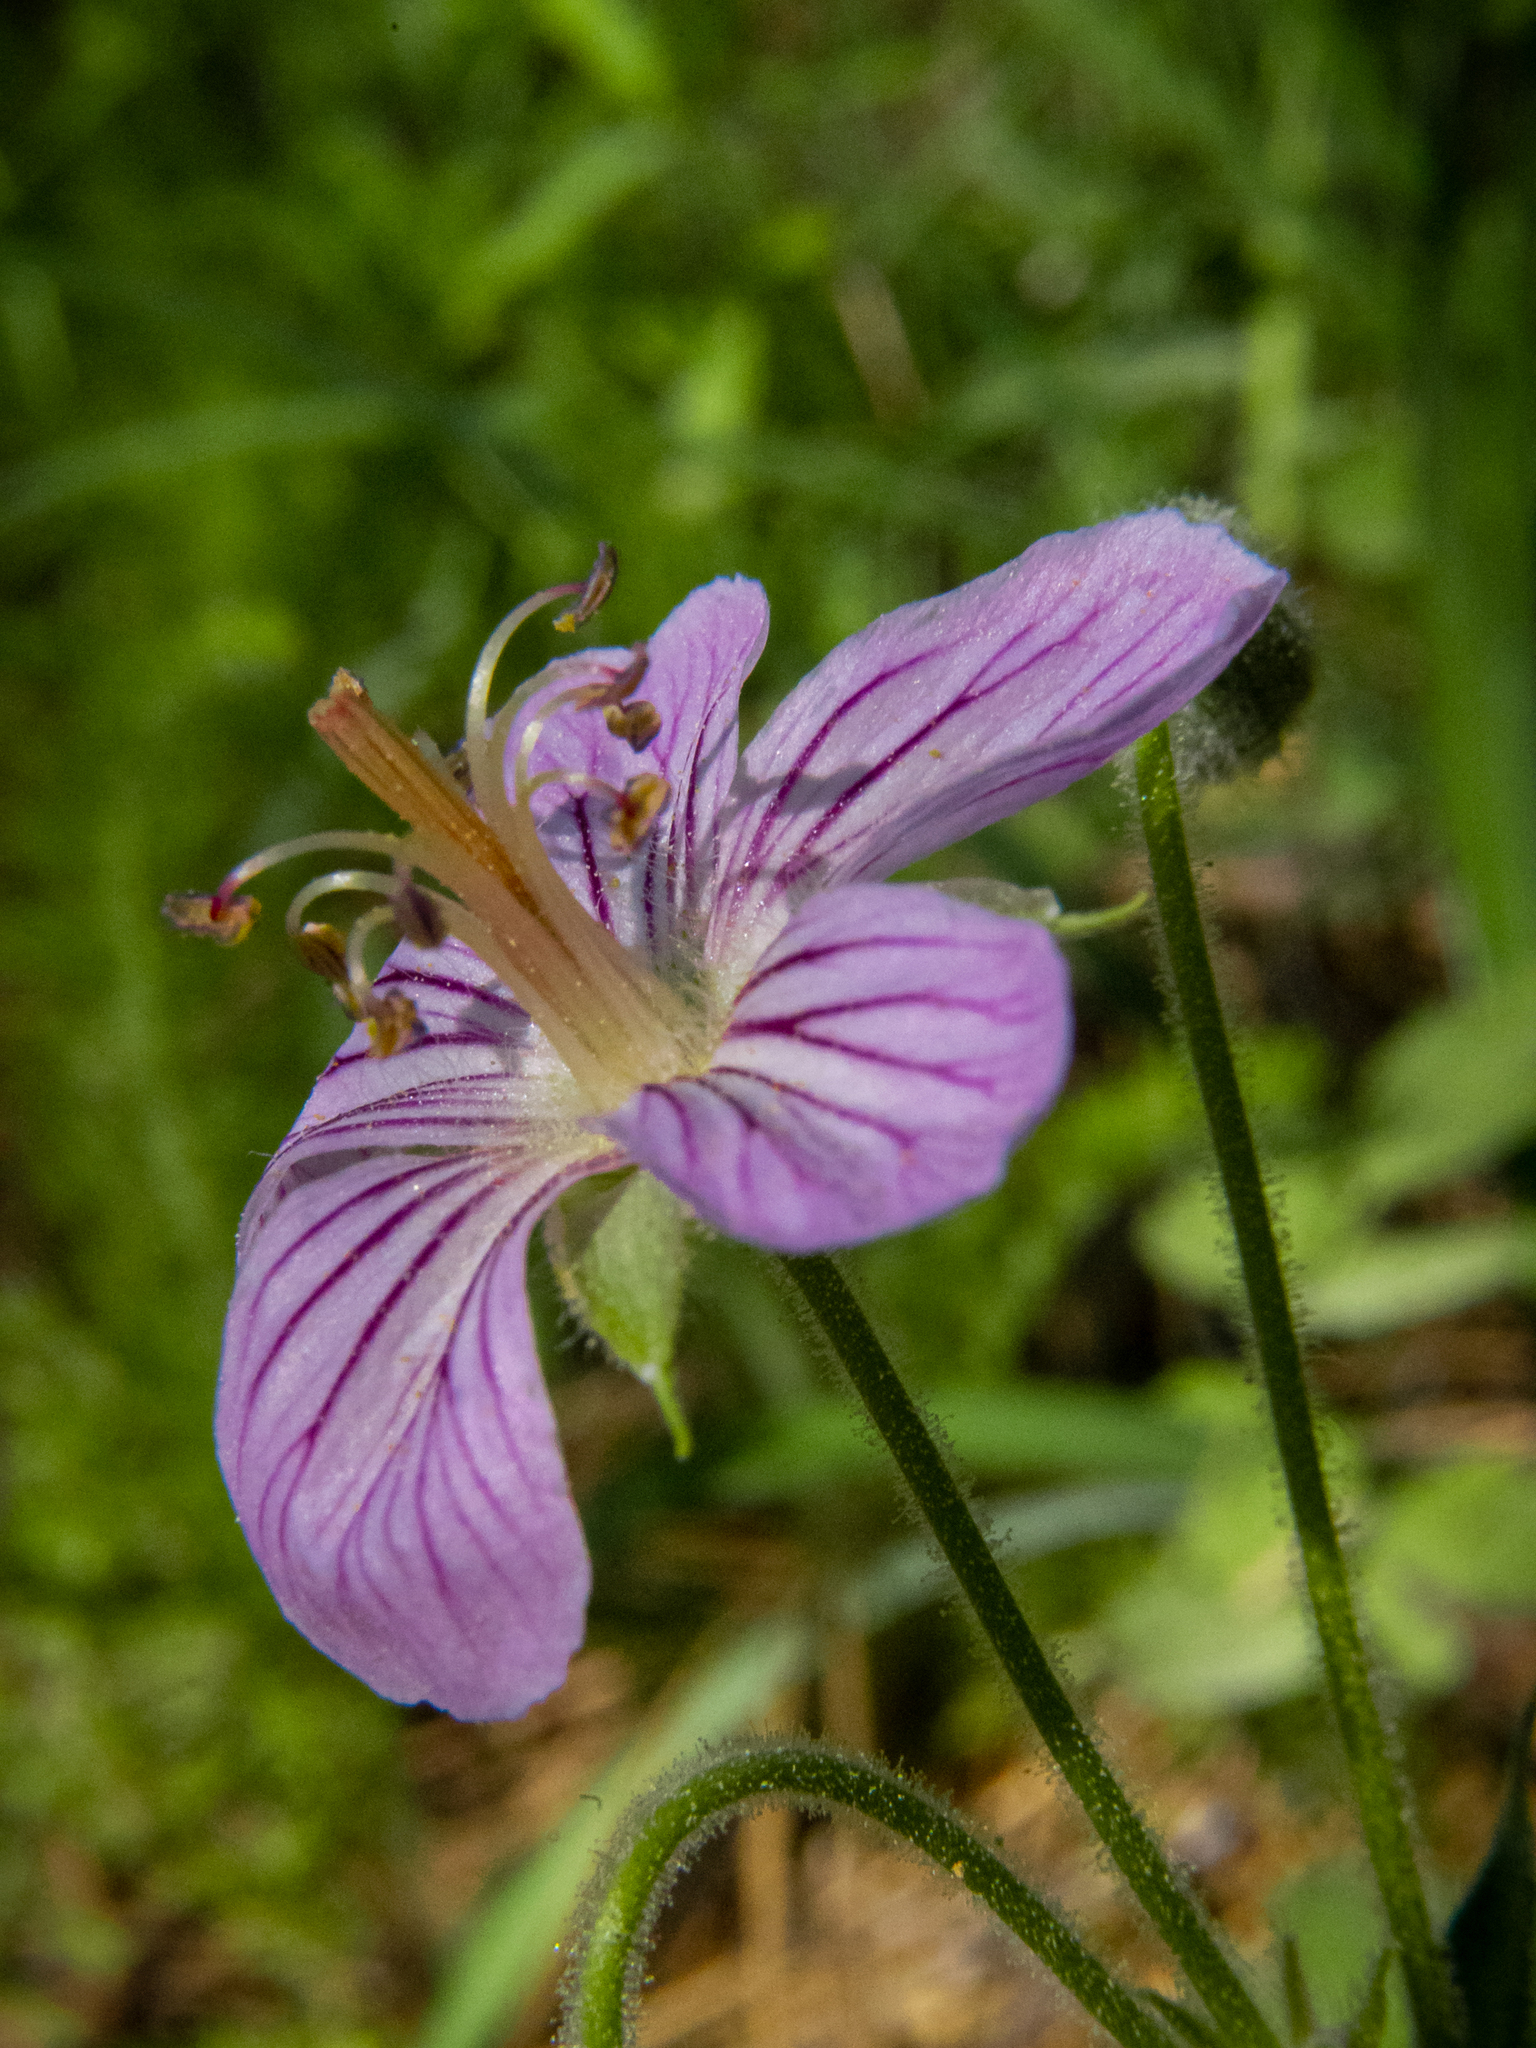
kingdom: Plantae
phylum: Tracheophyta
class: Magnoliopsida
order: Geraniales
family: Geraniaceae
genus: Geranium
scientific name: Geranium californicum
